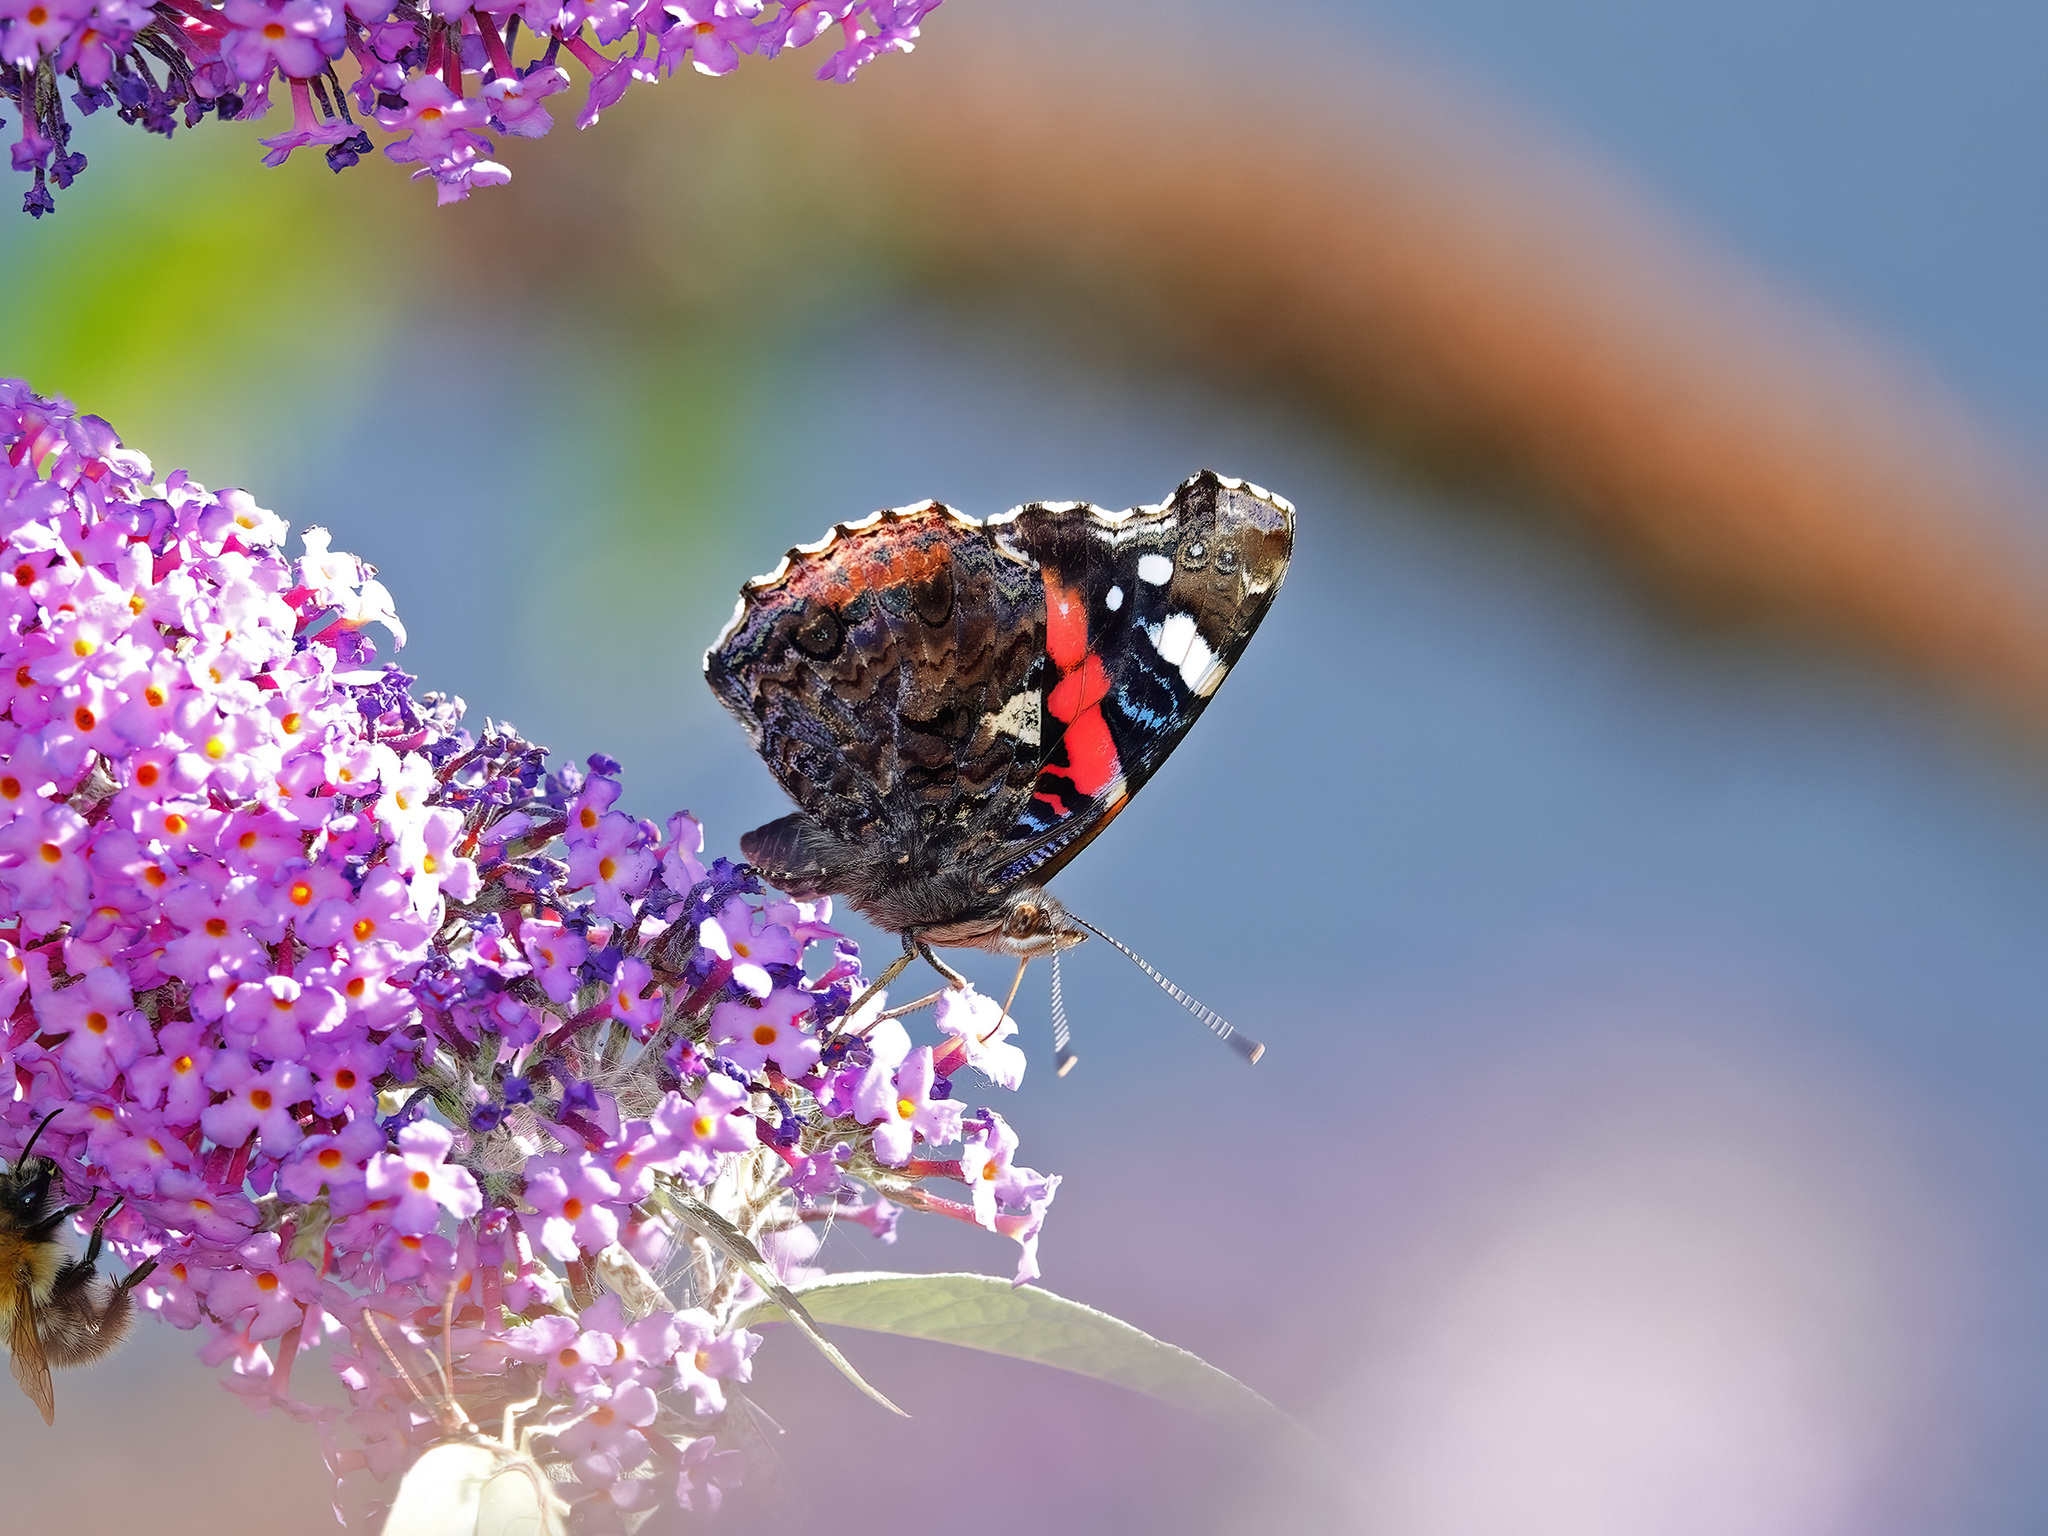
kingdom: Animalia
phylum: Arthropoda
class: Insecta
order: Lepidoptera
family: Nymphalidae
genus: Vanessa
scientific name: Vanessa atalanta
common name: Red admiral
